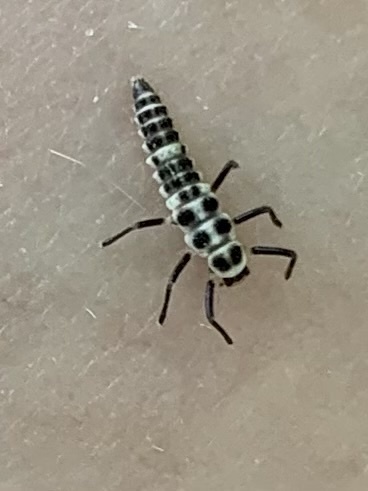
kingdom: Animalia
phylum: Arthropoda
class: Insecta
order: Coleoptera
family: Coccinellidae
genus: Calvia
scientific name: Calvia decemguttata
